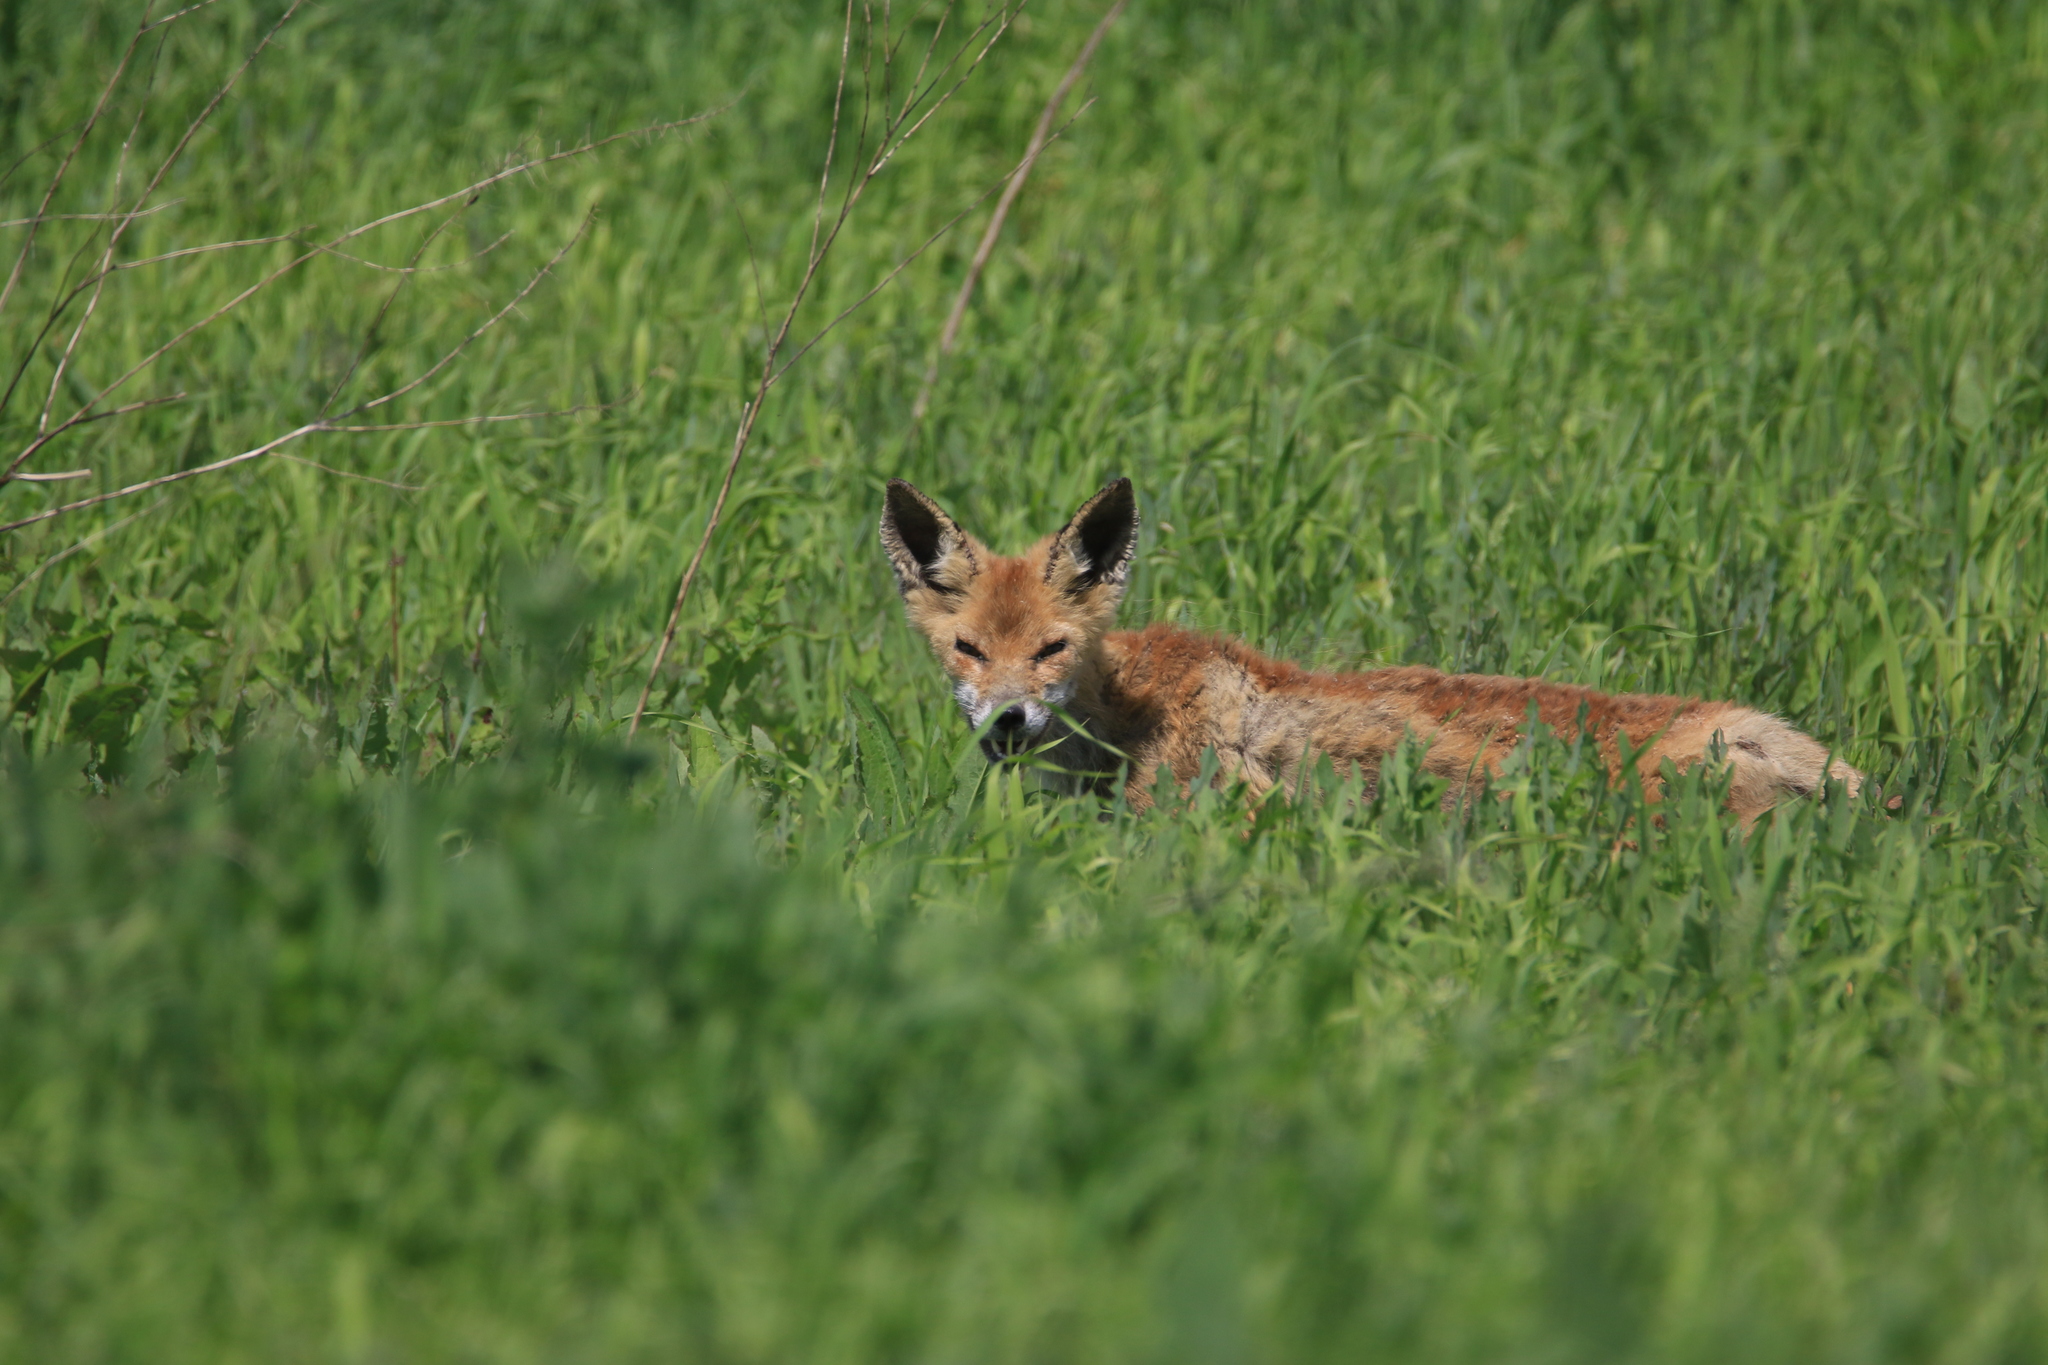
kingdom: Animalia
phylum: Chordata
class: Mammalia
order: Carnivora
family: Canidae
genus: Vulpes
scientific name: Vulpes vulpes
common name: Red fox
